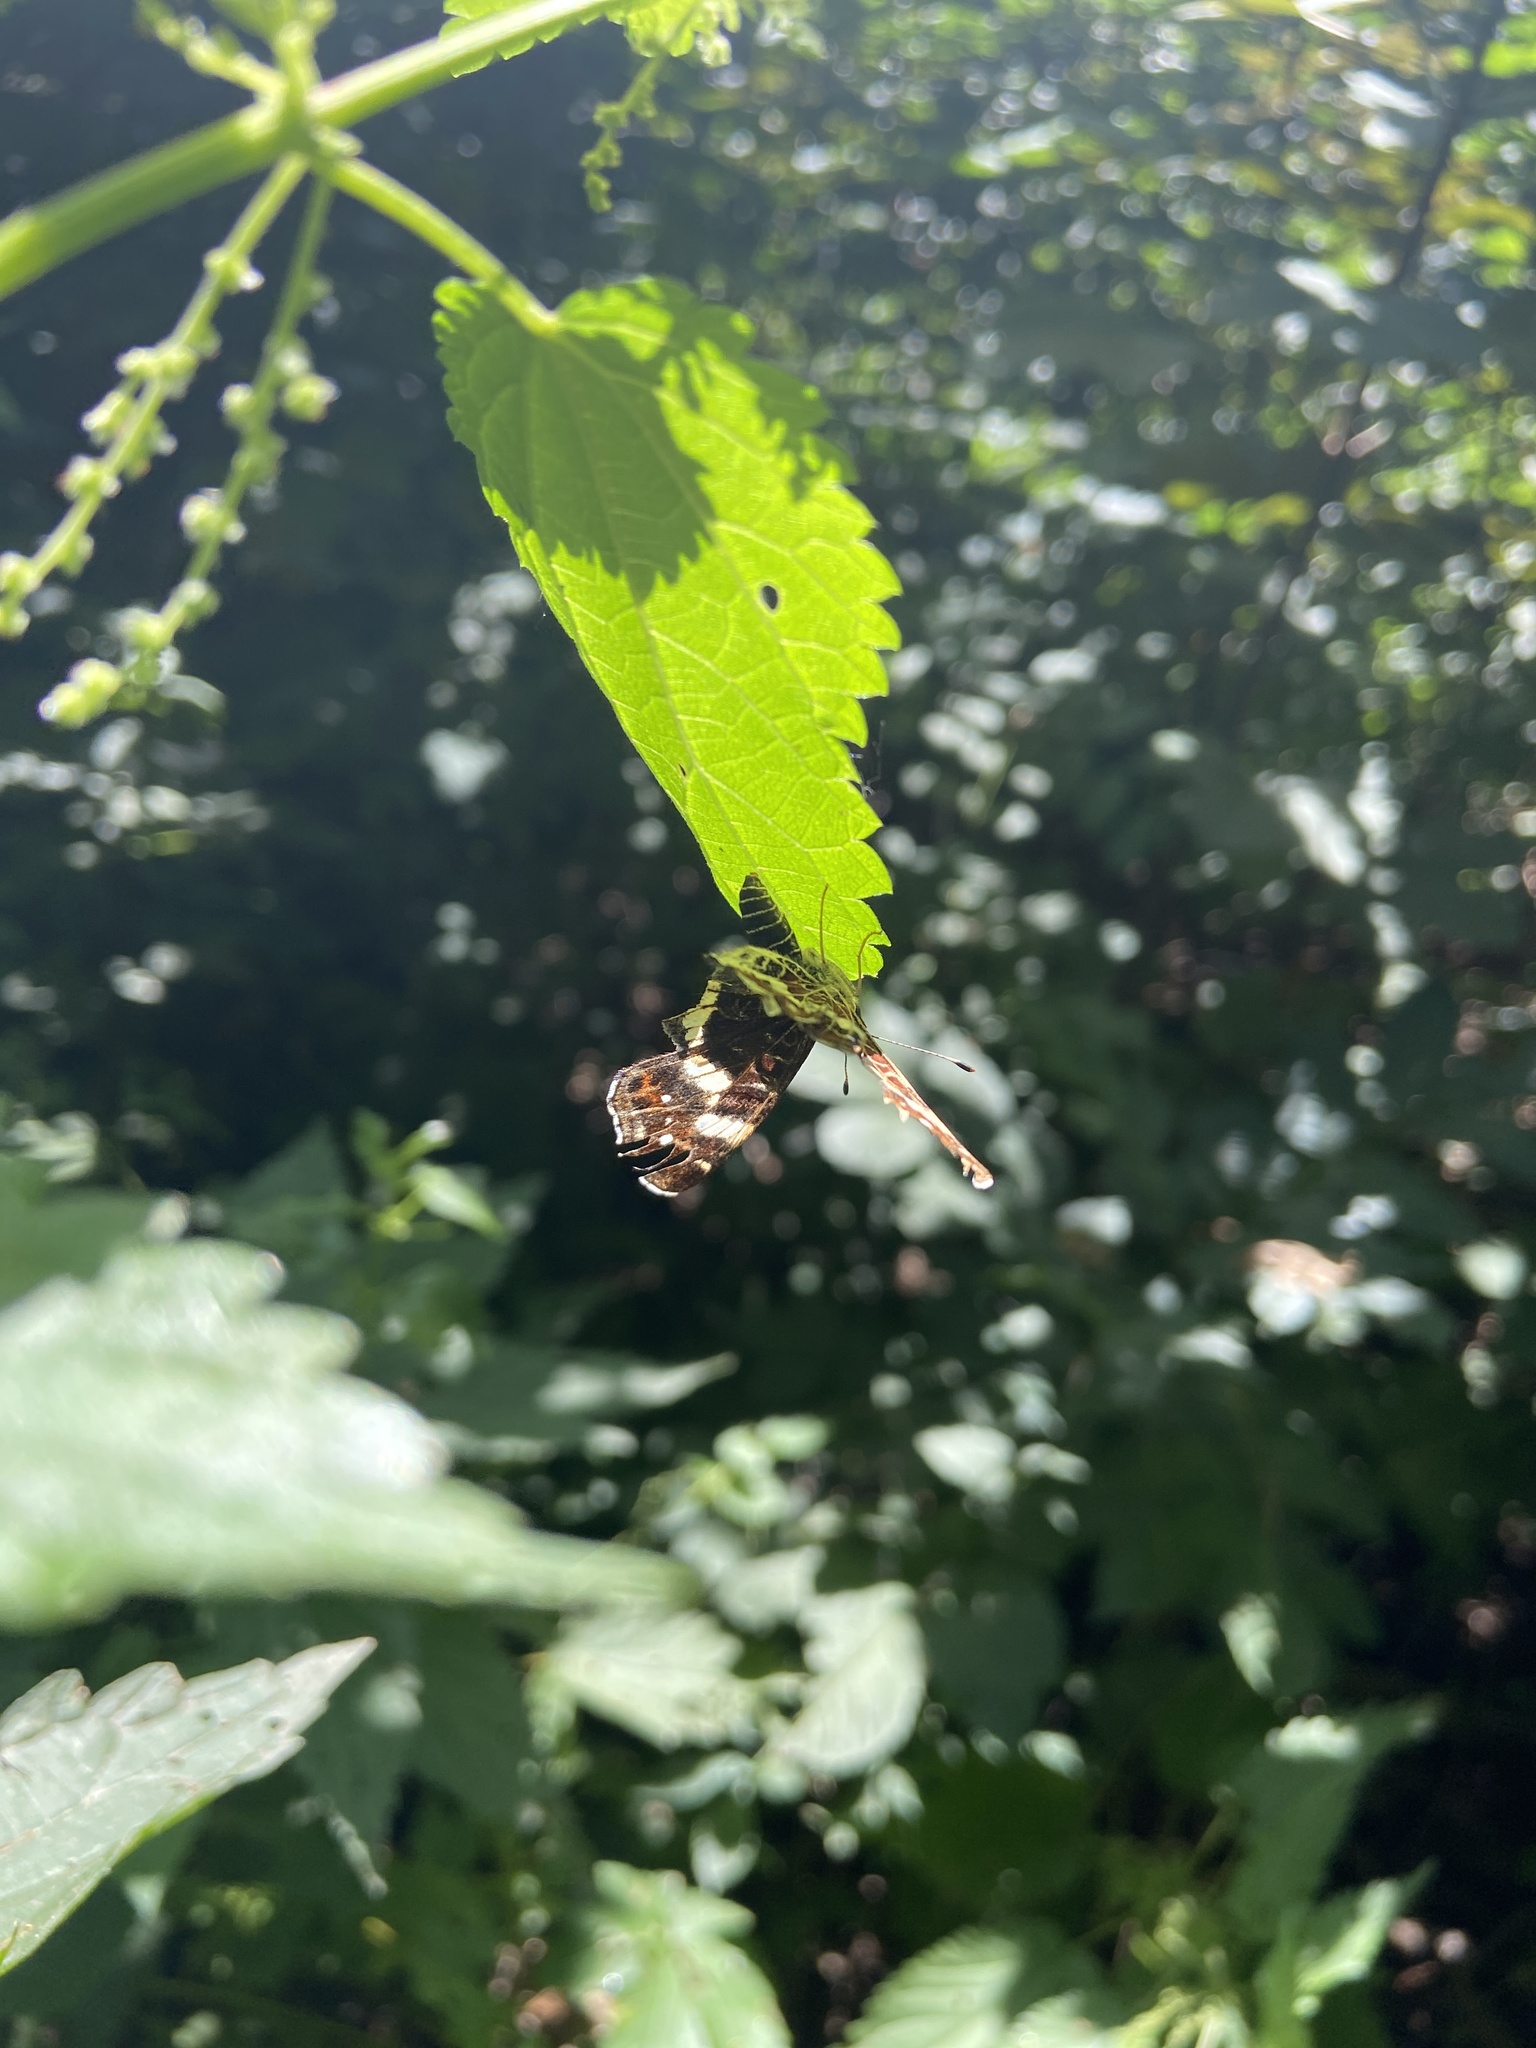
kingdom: Animalia
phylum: Arthropoda
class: Insecta
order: Lepidoptera
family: Nymphalidae
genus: Araschnia
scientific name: Araschnia levana
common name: Map butterfly
